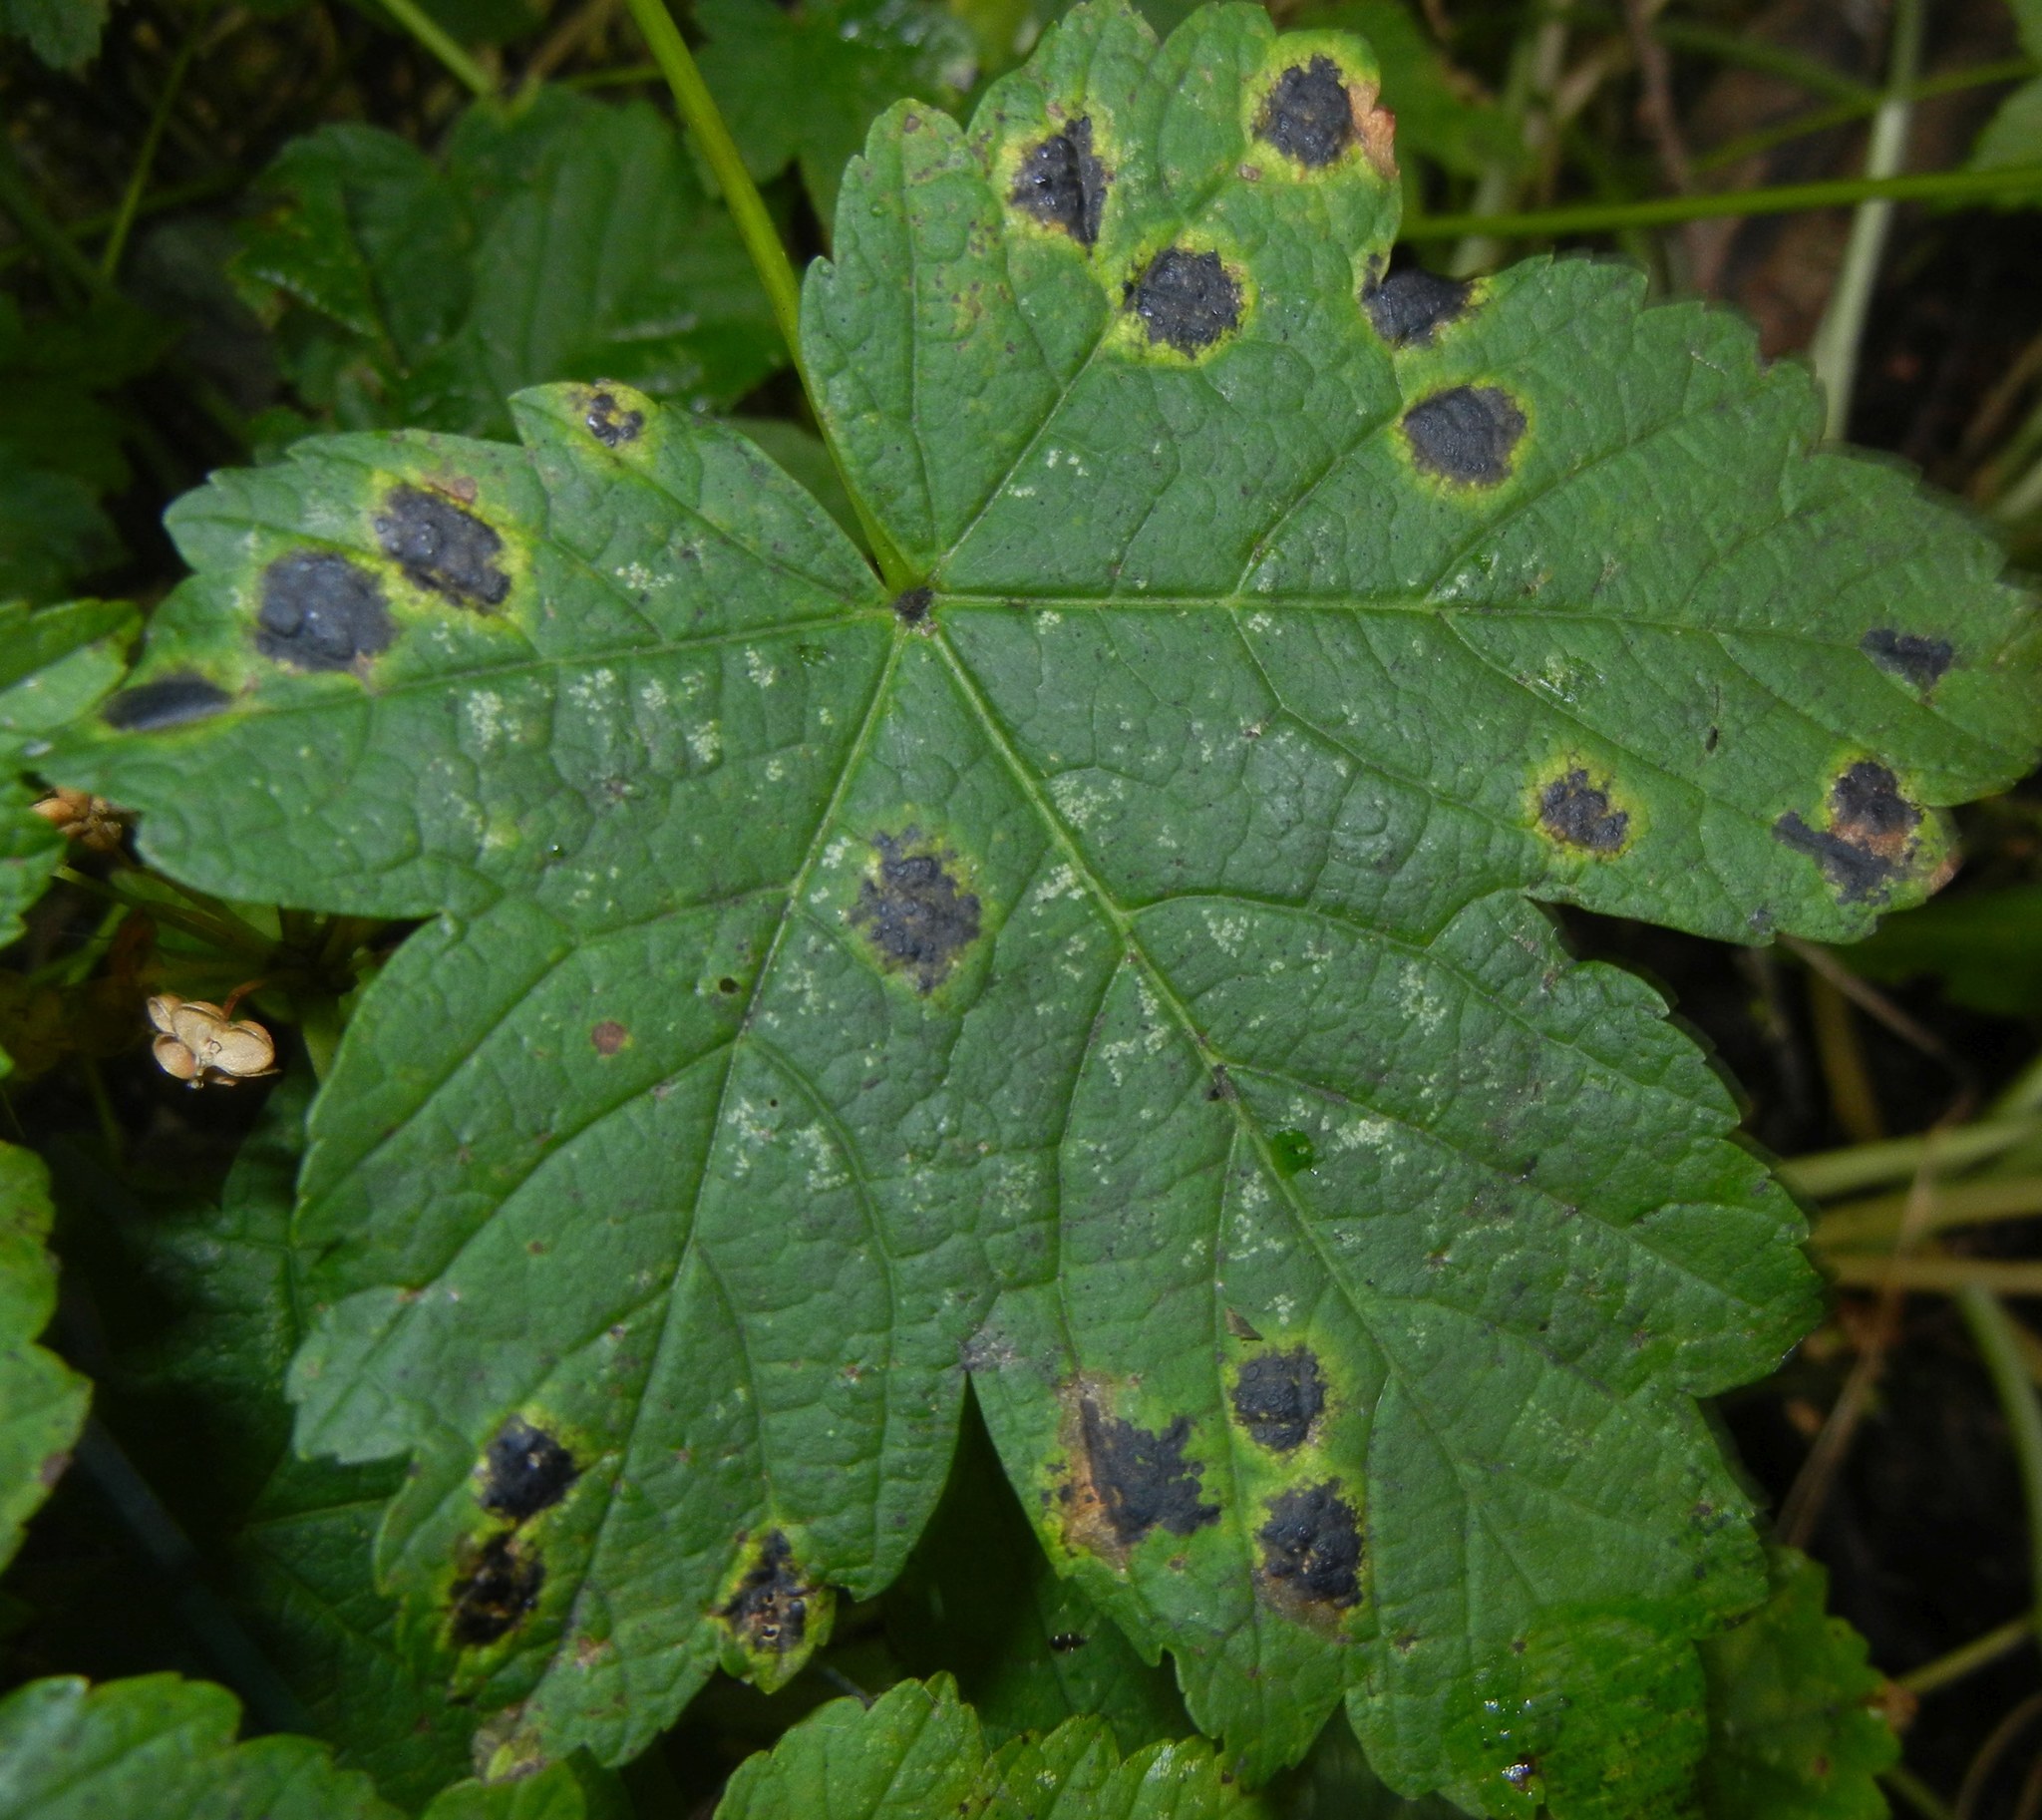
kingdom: Fungi
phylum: Ascomycota
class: Leotiomycetes
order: Rhytismatales
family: Rhytismataceae
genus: Rhytisma
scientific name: Rhytisma acerinum
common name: European tar spot
